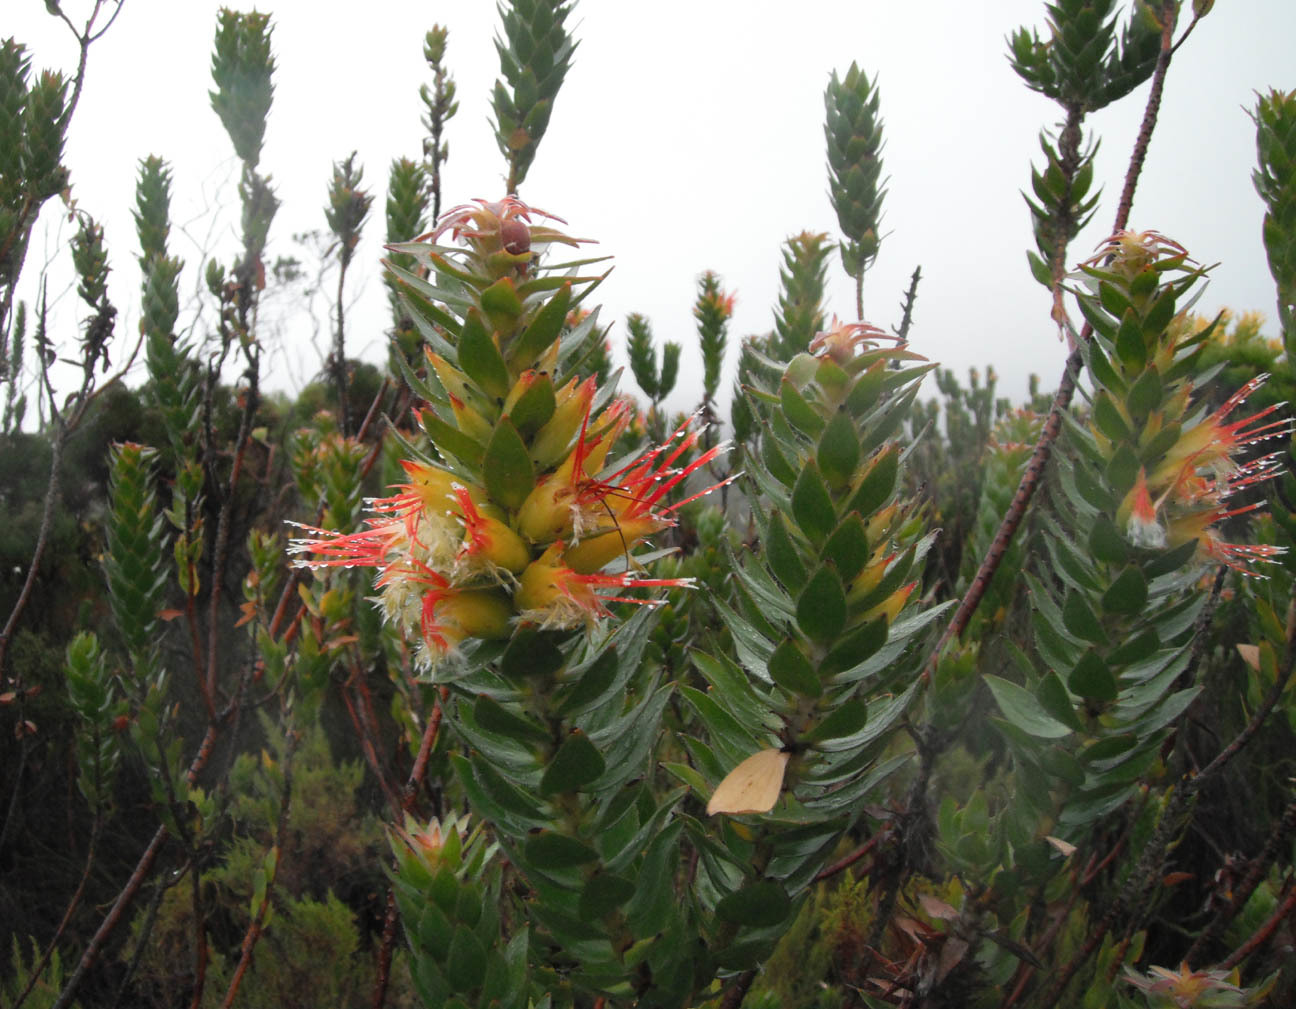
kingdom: Plantae
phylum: Tracheophyta
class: Magnoliopsida
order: Proteales
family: Proteaceae
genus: Mimetes
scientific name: Mimetes hirtus
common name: Marsh pagoda
